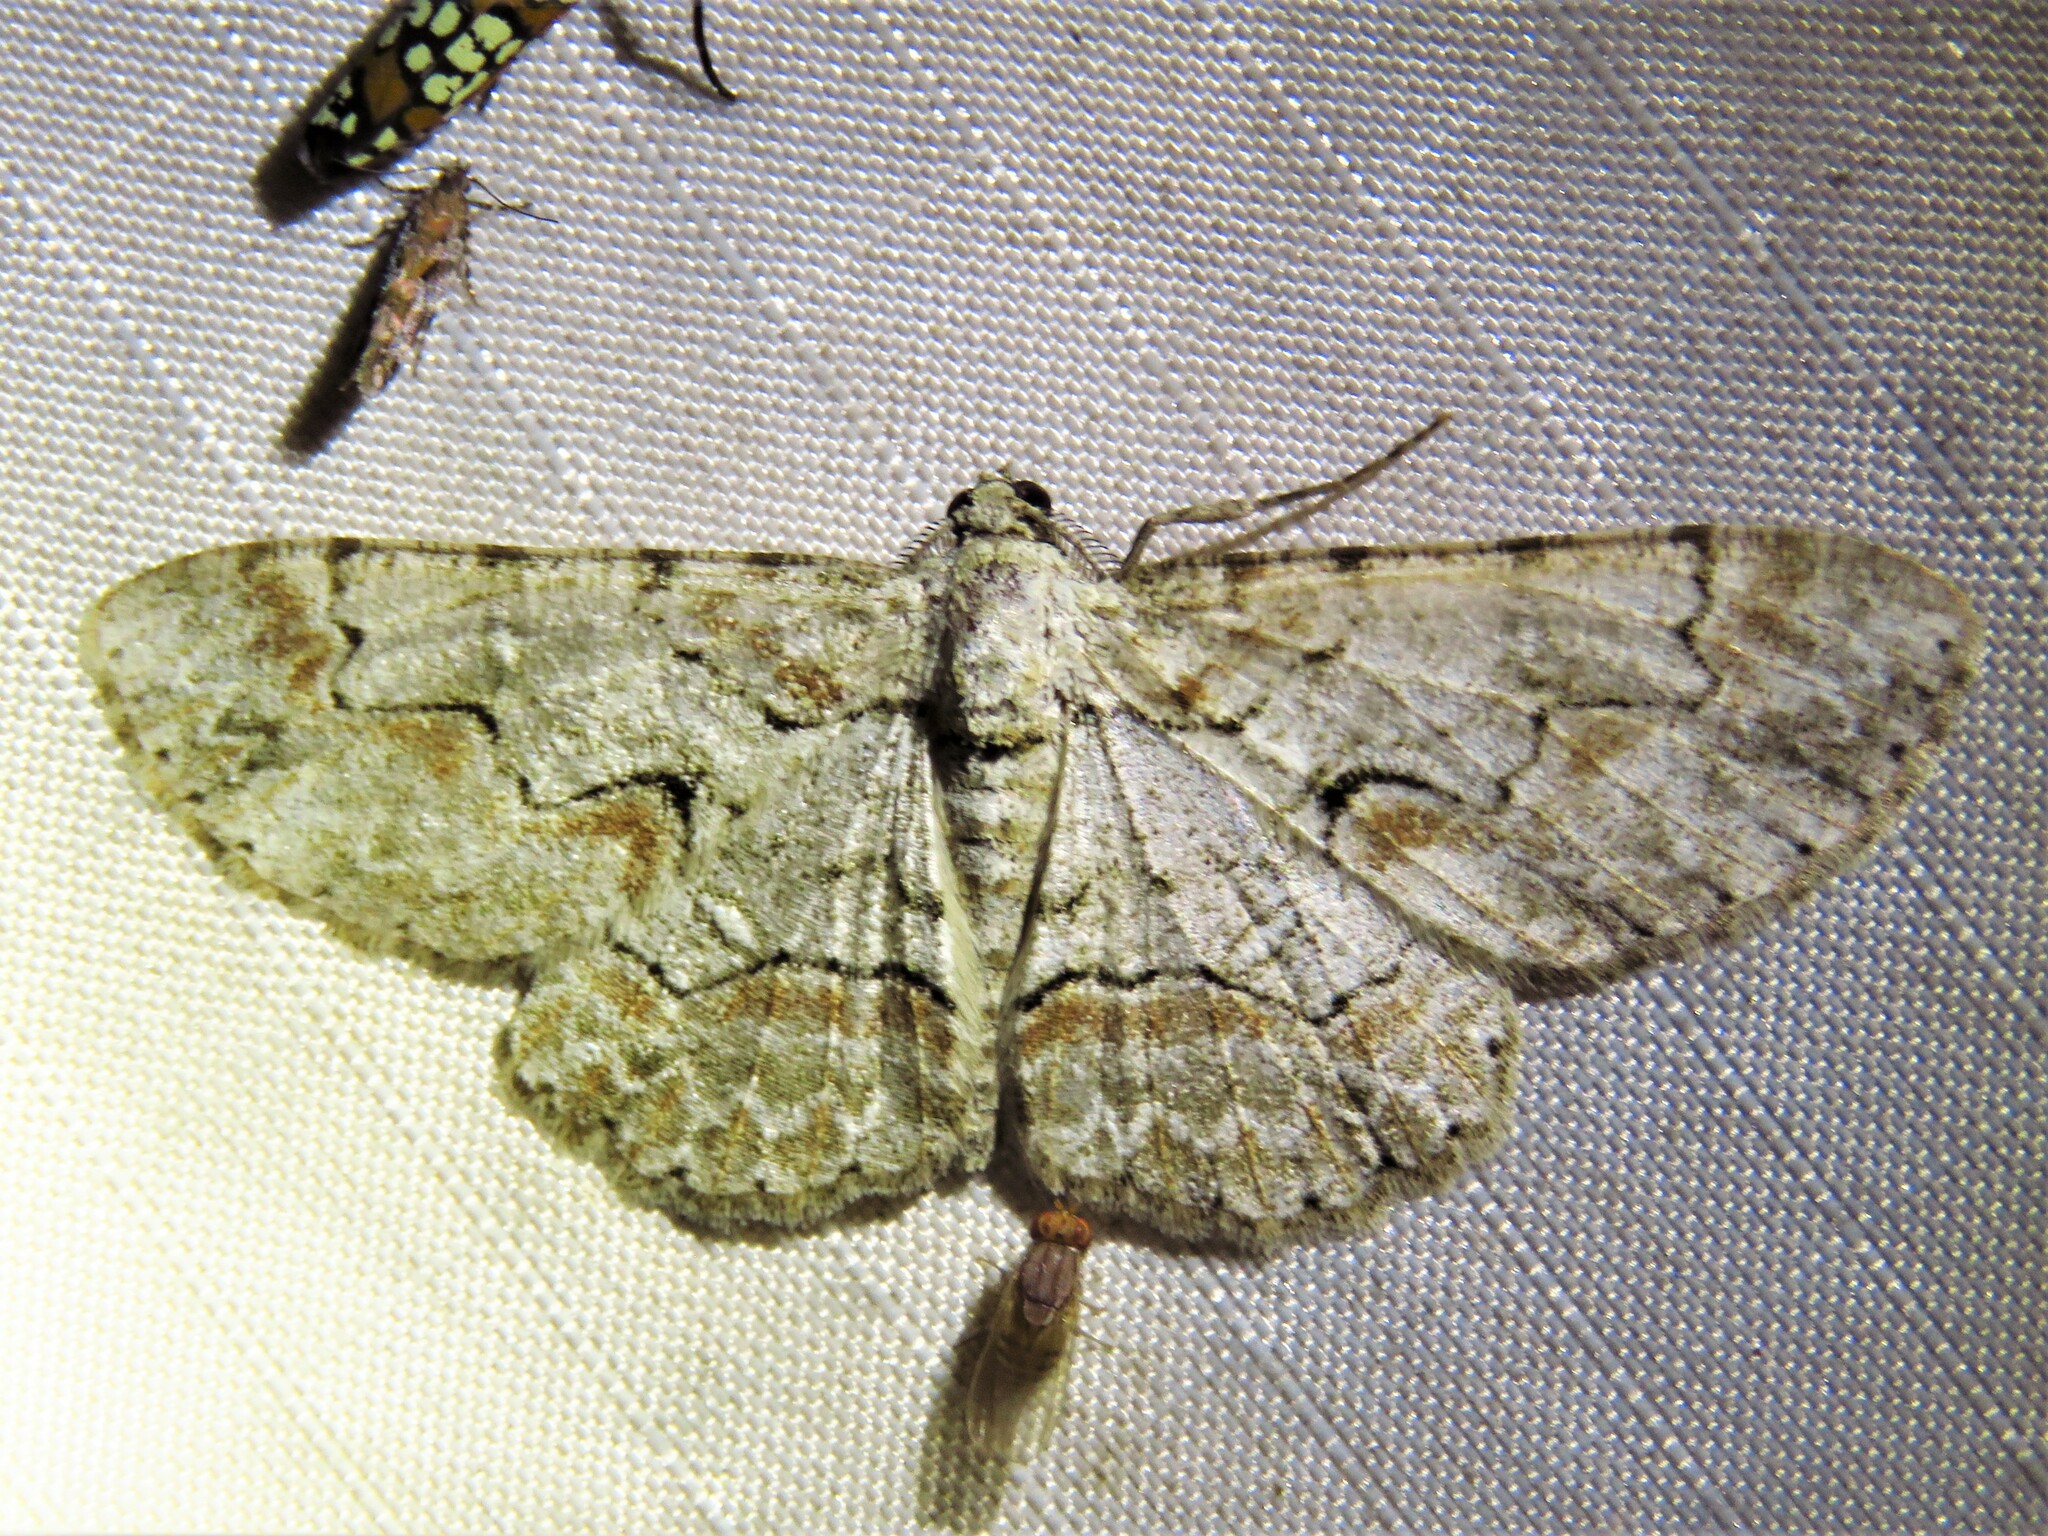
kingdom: Animalia
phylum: Arthropoda
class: Insecta
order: Lepidoptera
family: Geometridae
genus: Iridopsis
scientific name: Iridopsis defectaria
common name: Brown-shaded gray
